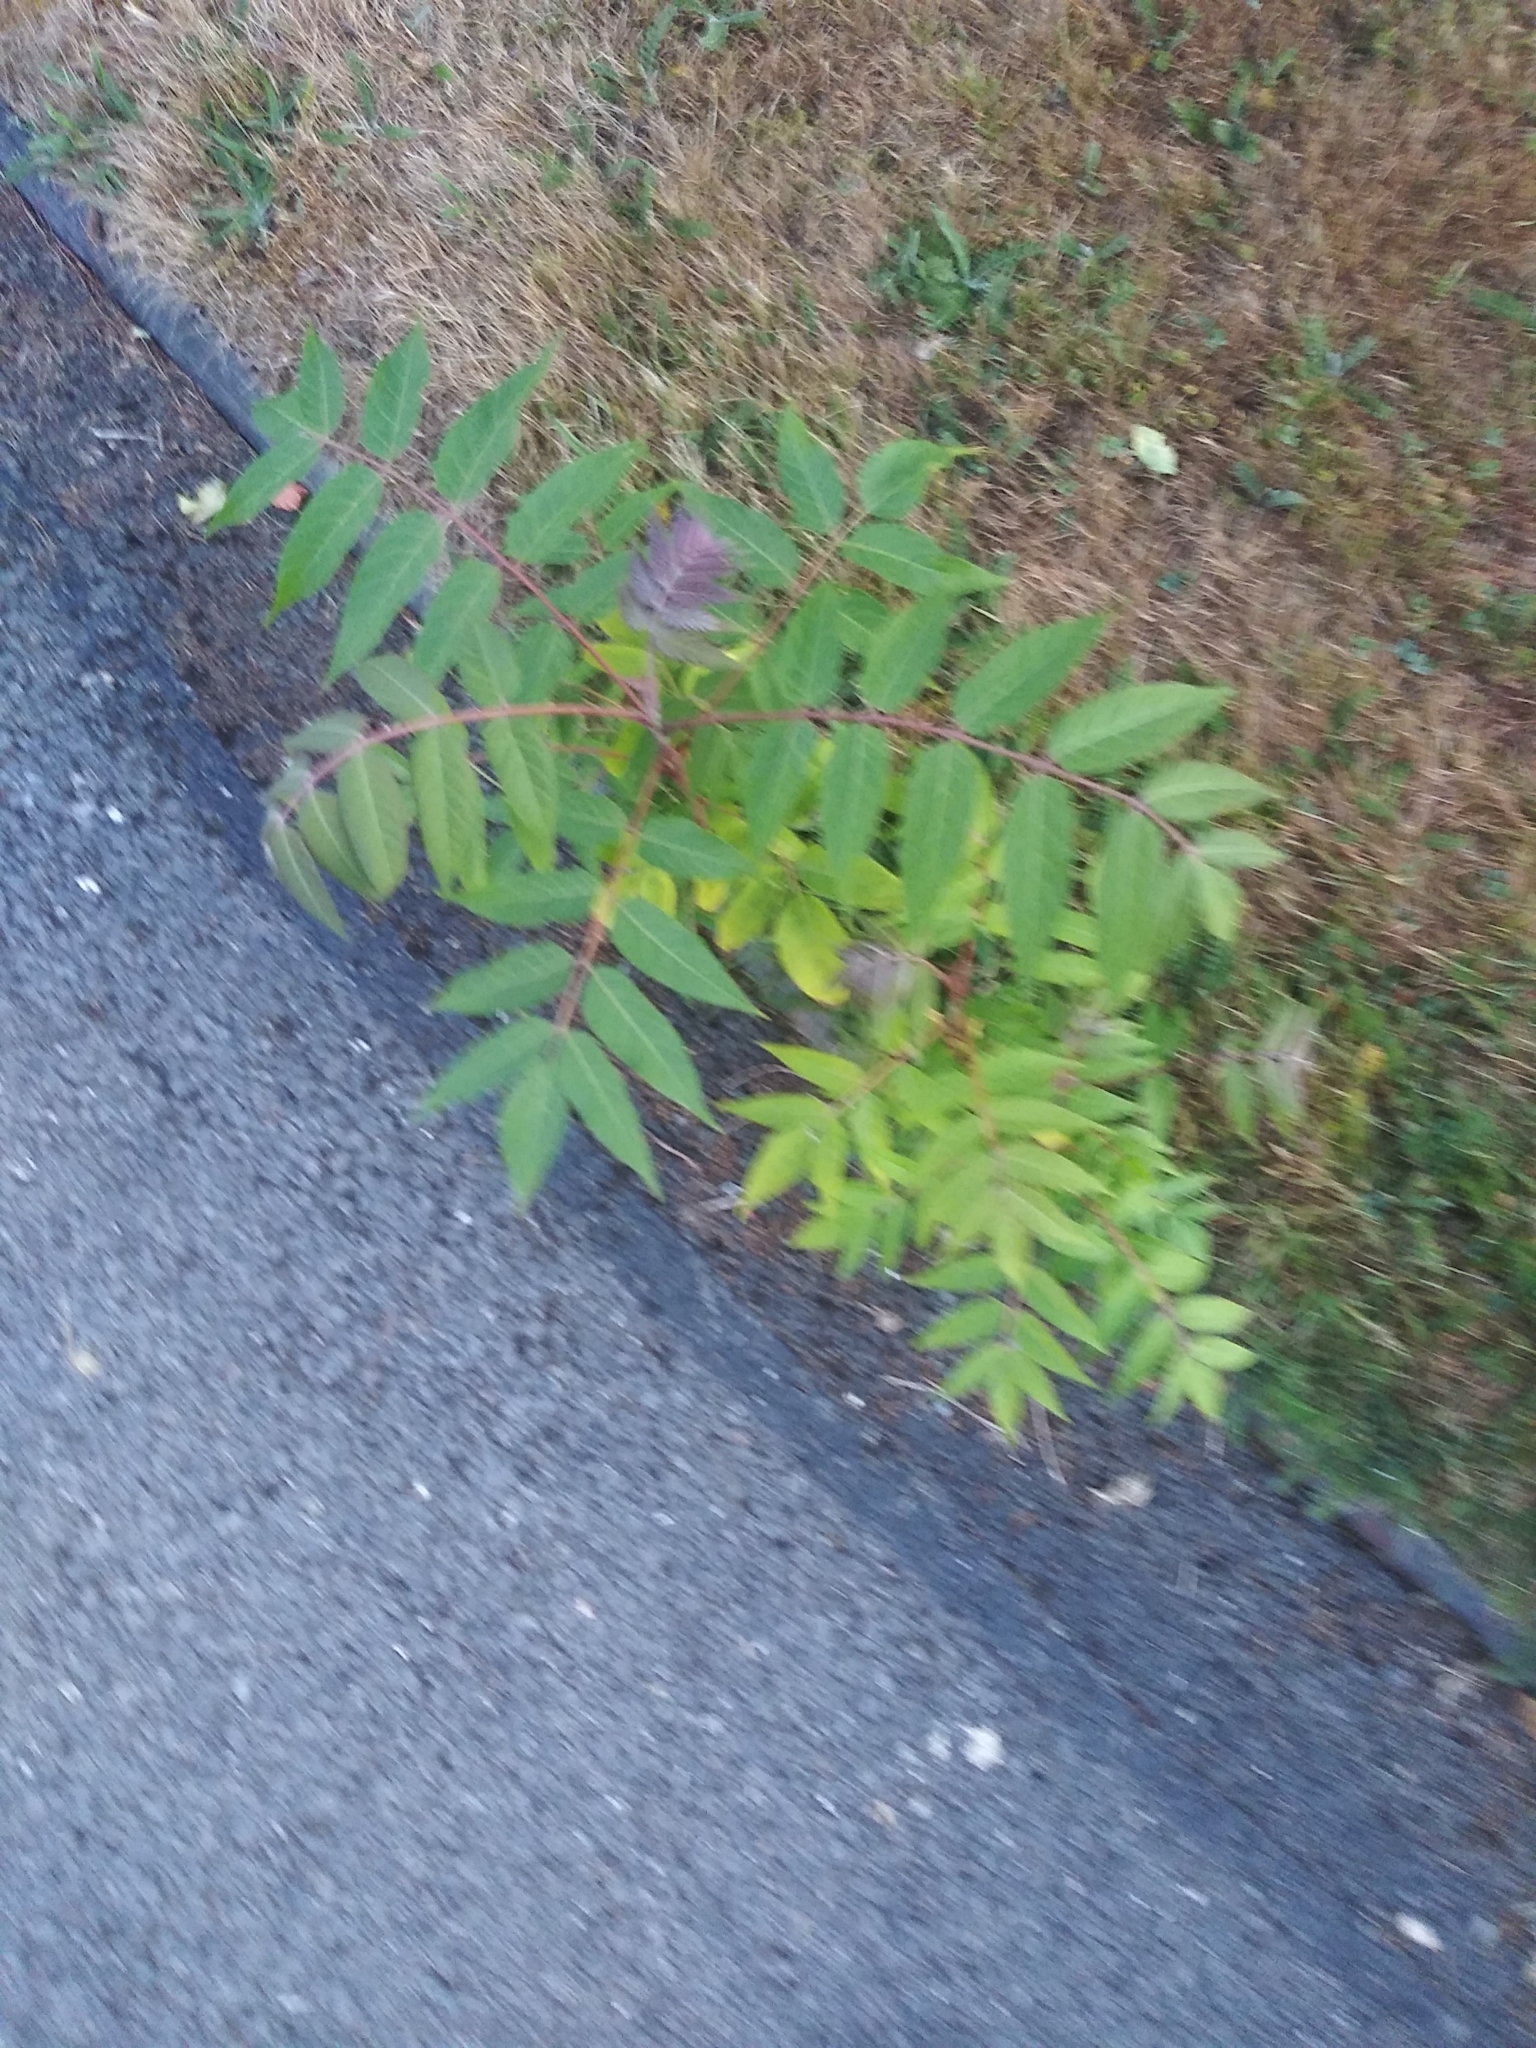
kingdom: Plantae
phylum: Tracheophyta
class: Magnoliopsida
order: Sapindales
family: Simaroubaceae
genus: Ailanthus
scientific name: Ailanthus altissima
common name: Tree-of-heaven
